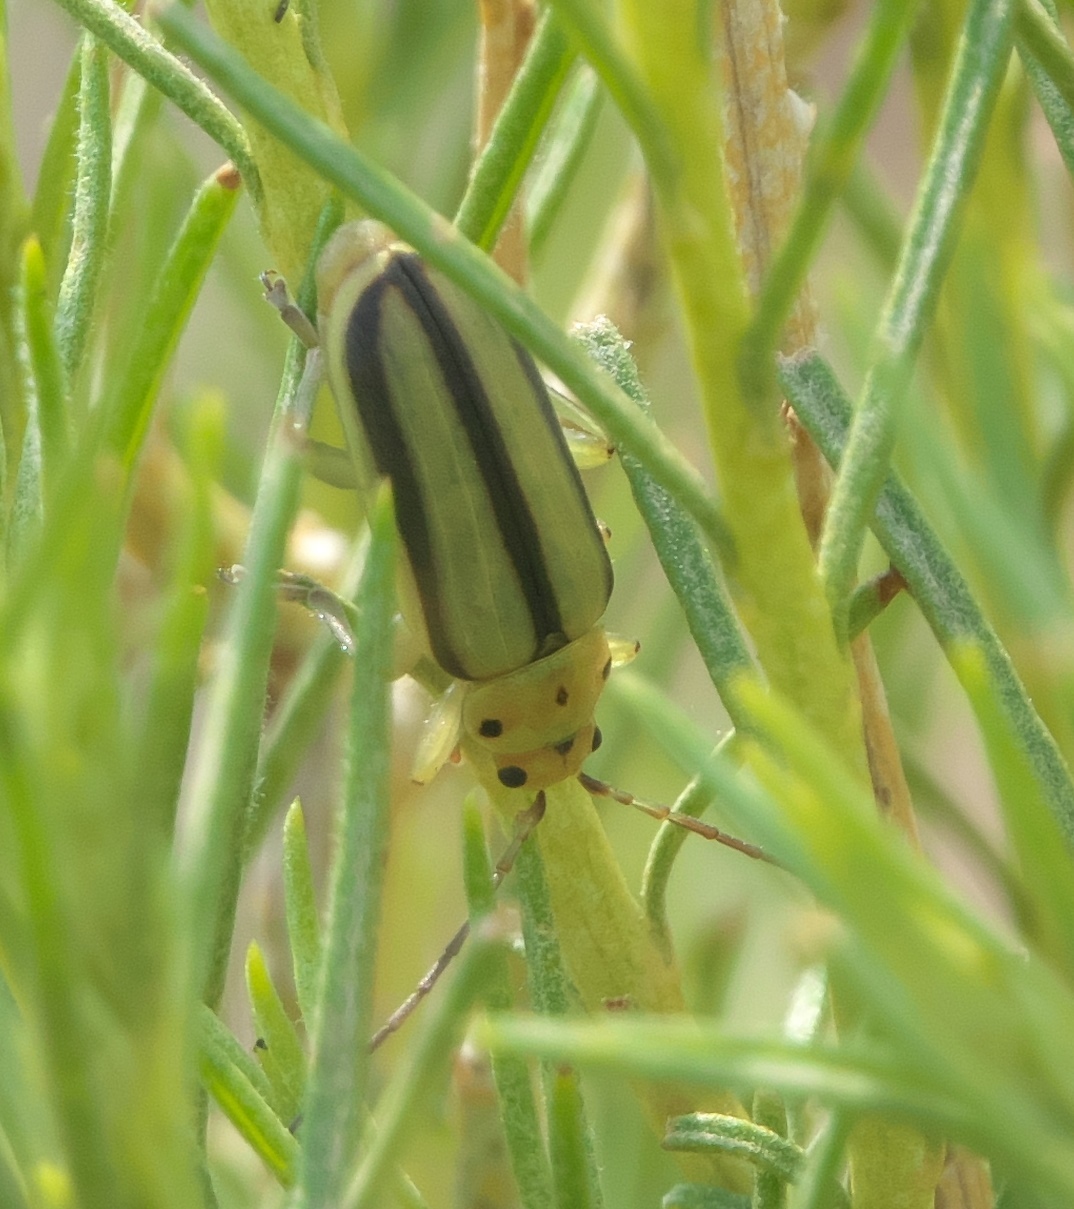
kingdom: Animalia
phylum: Arthropoda
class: Insecta
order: Coleoptera
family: Chrysomelidae
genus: Trirhabda
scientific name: Trirhabda nitidicollis
